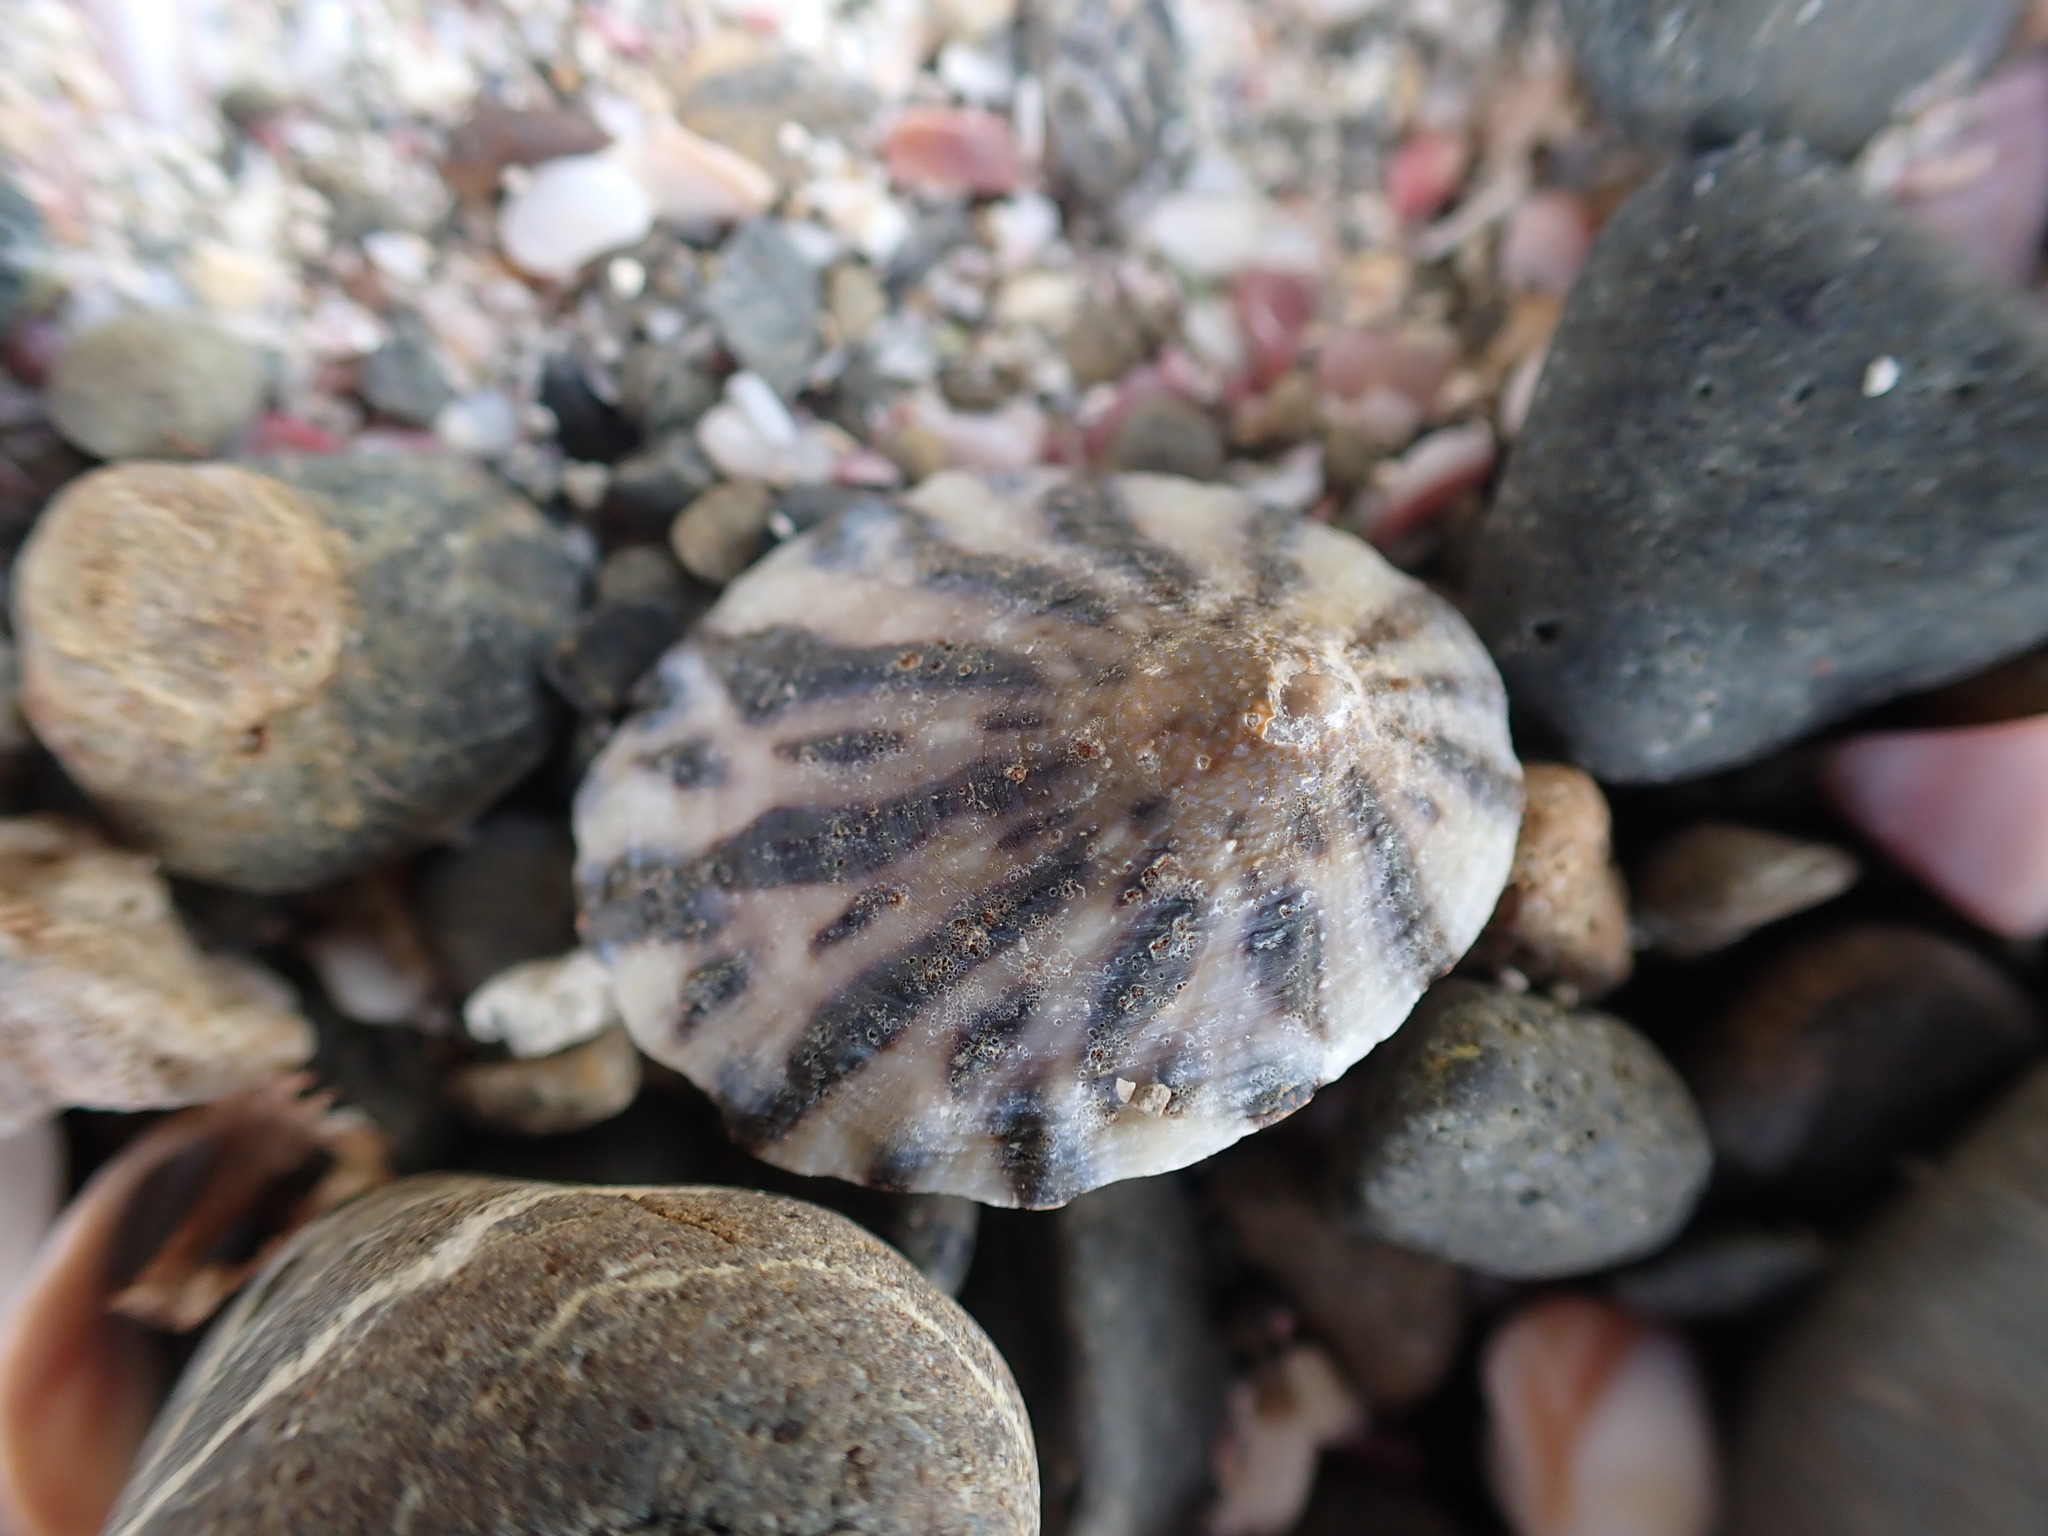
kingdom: Animalia
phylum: Mollusca
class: Gastropoda
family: Nacellidae
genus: Cellana
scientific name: Cellana radians
